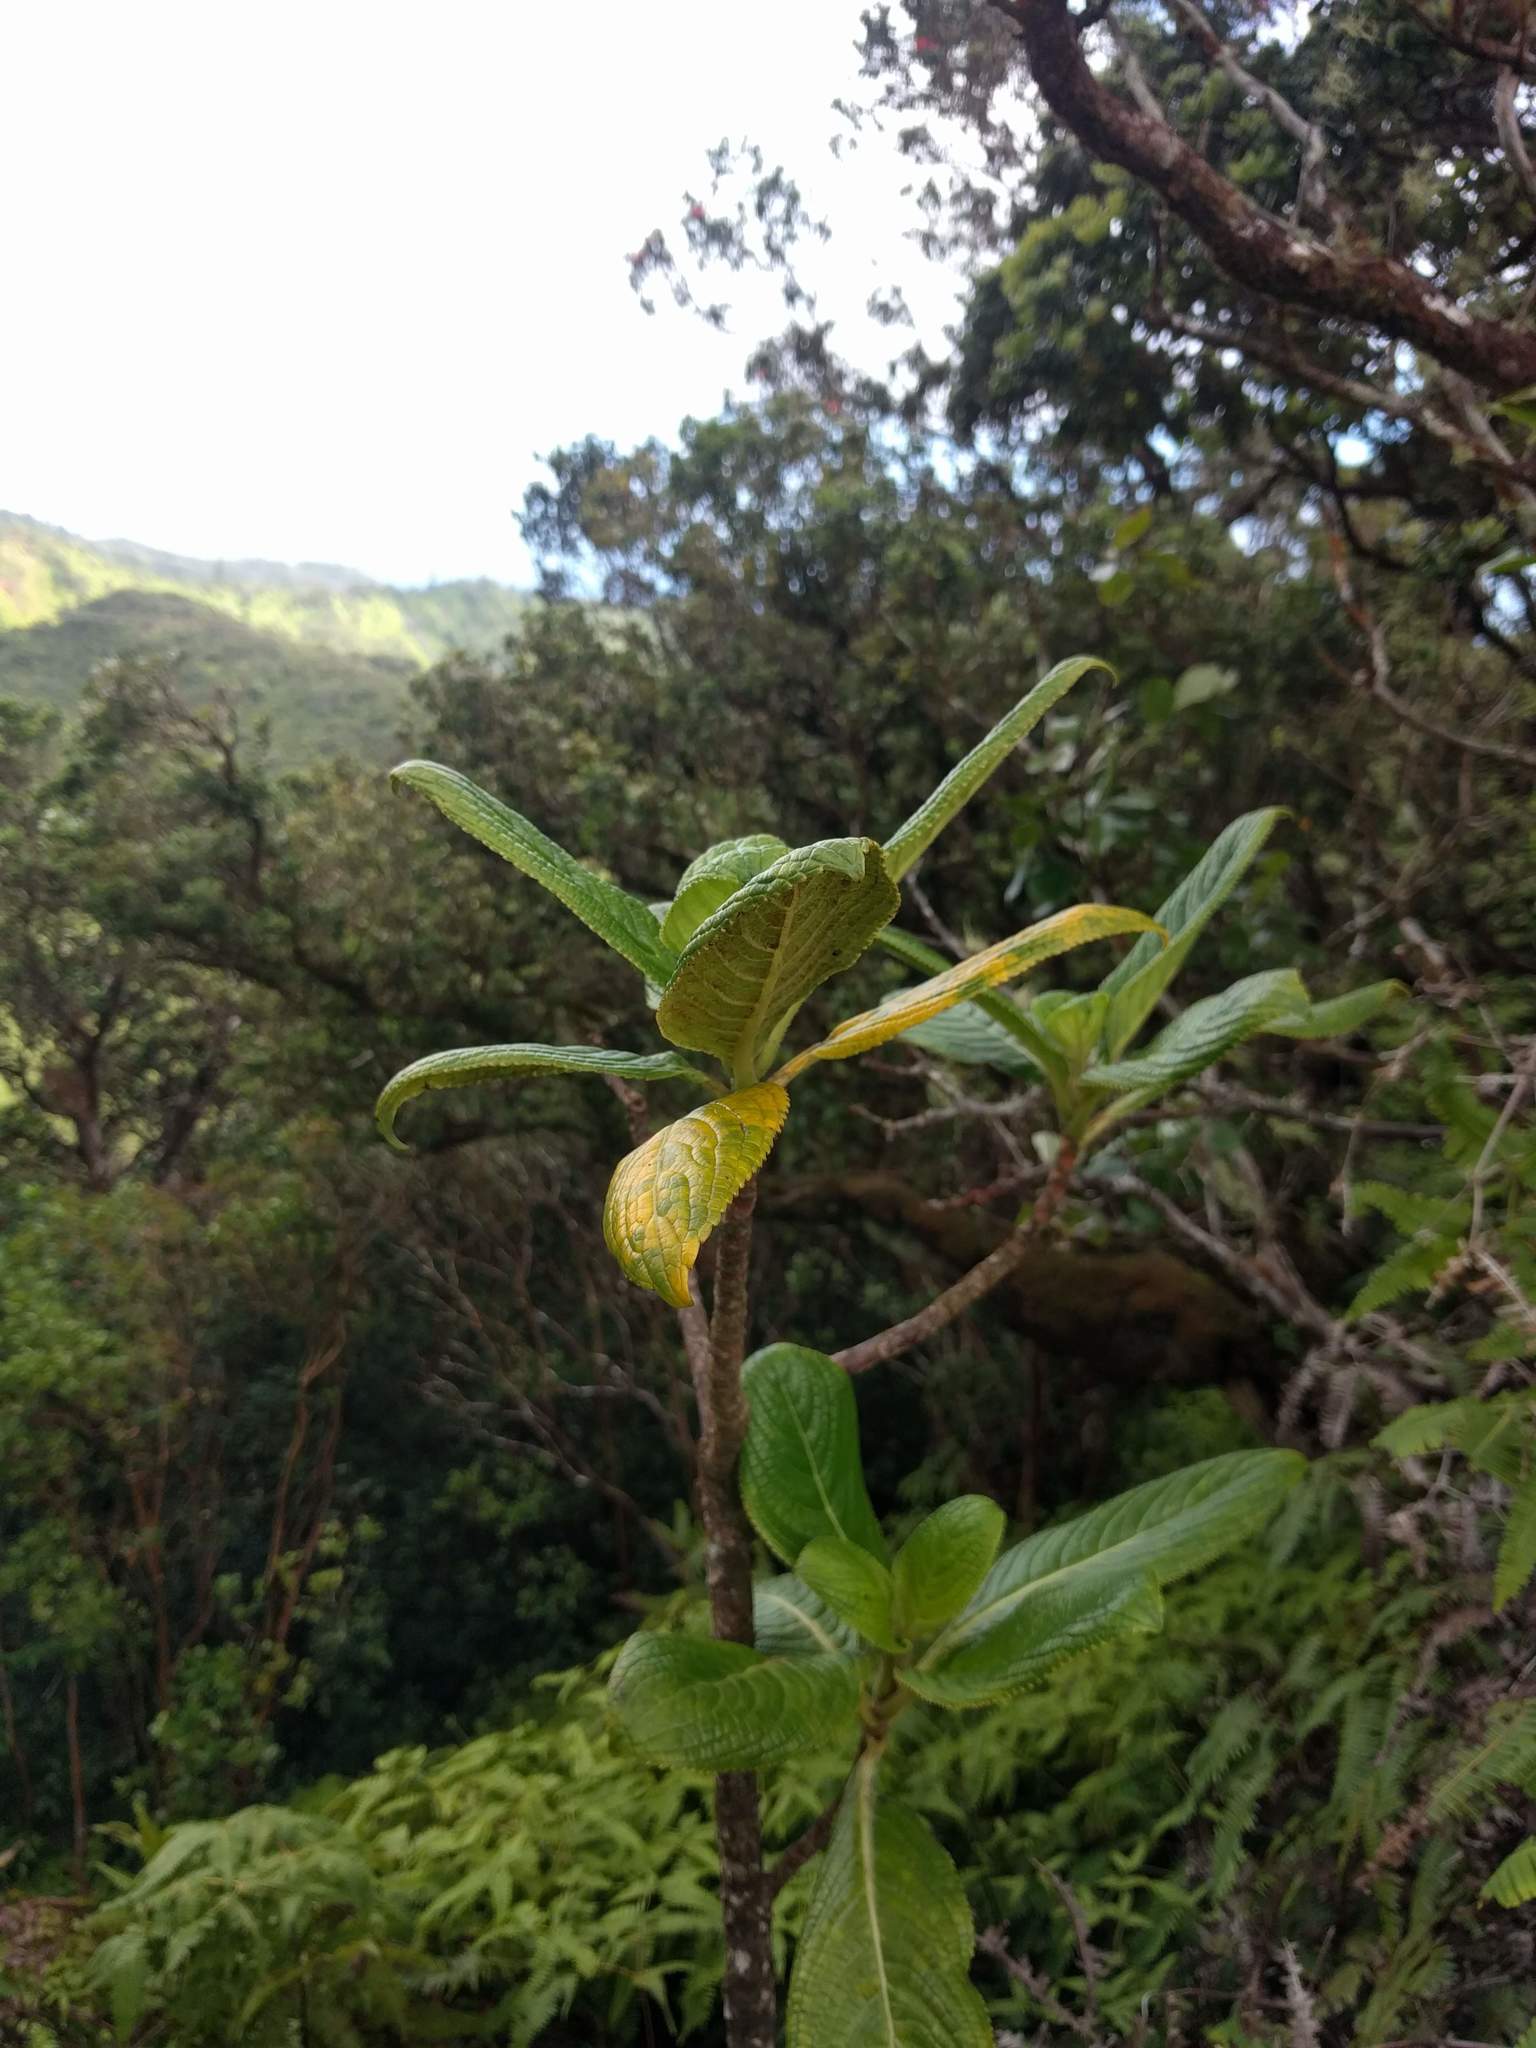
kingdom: Plantae
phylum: Tracheophyta
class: Magnoliopsida
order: Cornales
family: Hydrangeaceae
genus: Hydrangea
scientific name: Hydrangea arguta
